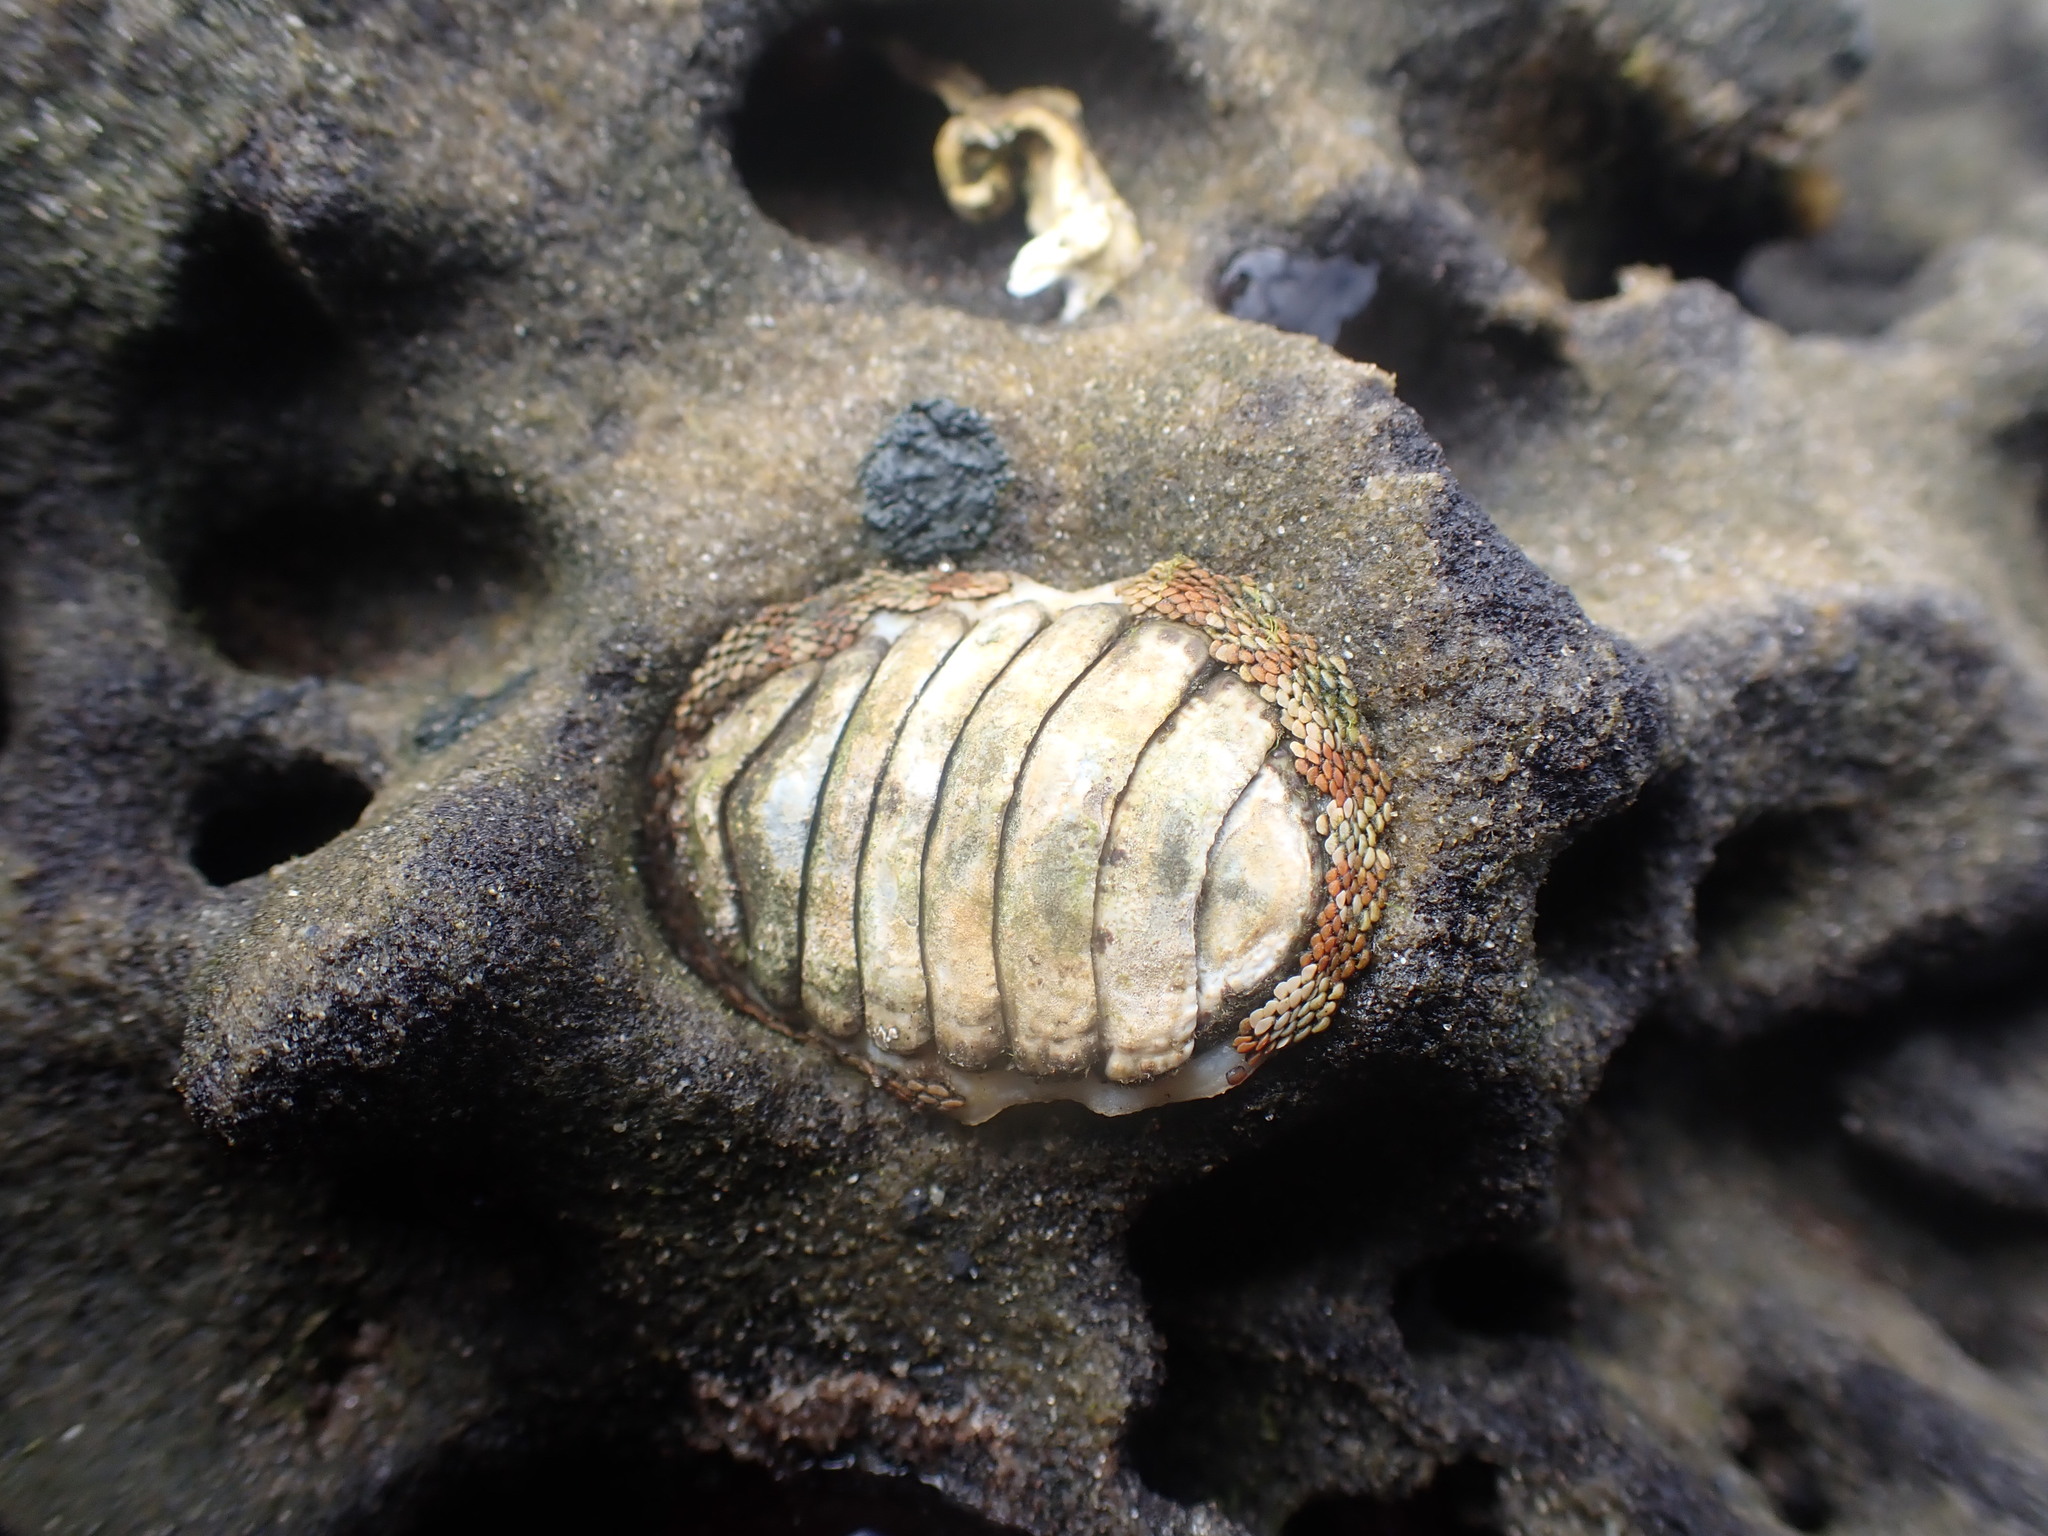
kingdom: Animalia
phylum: Mollusca
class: Polyplacophora
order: Chitonida
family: Chitonidae
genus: Sypharochiton
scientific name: Sypharochiton pelliserpentis
